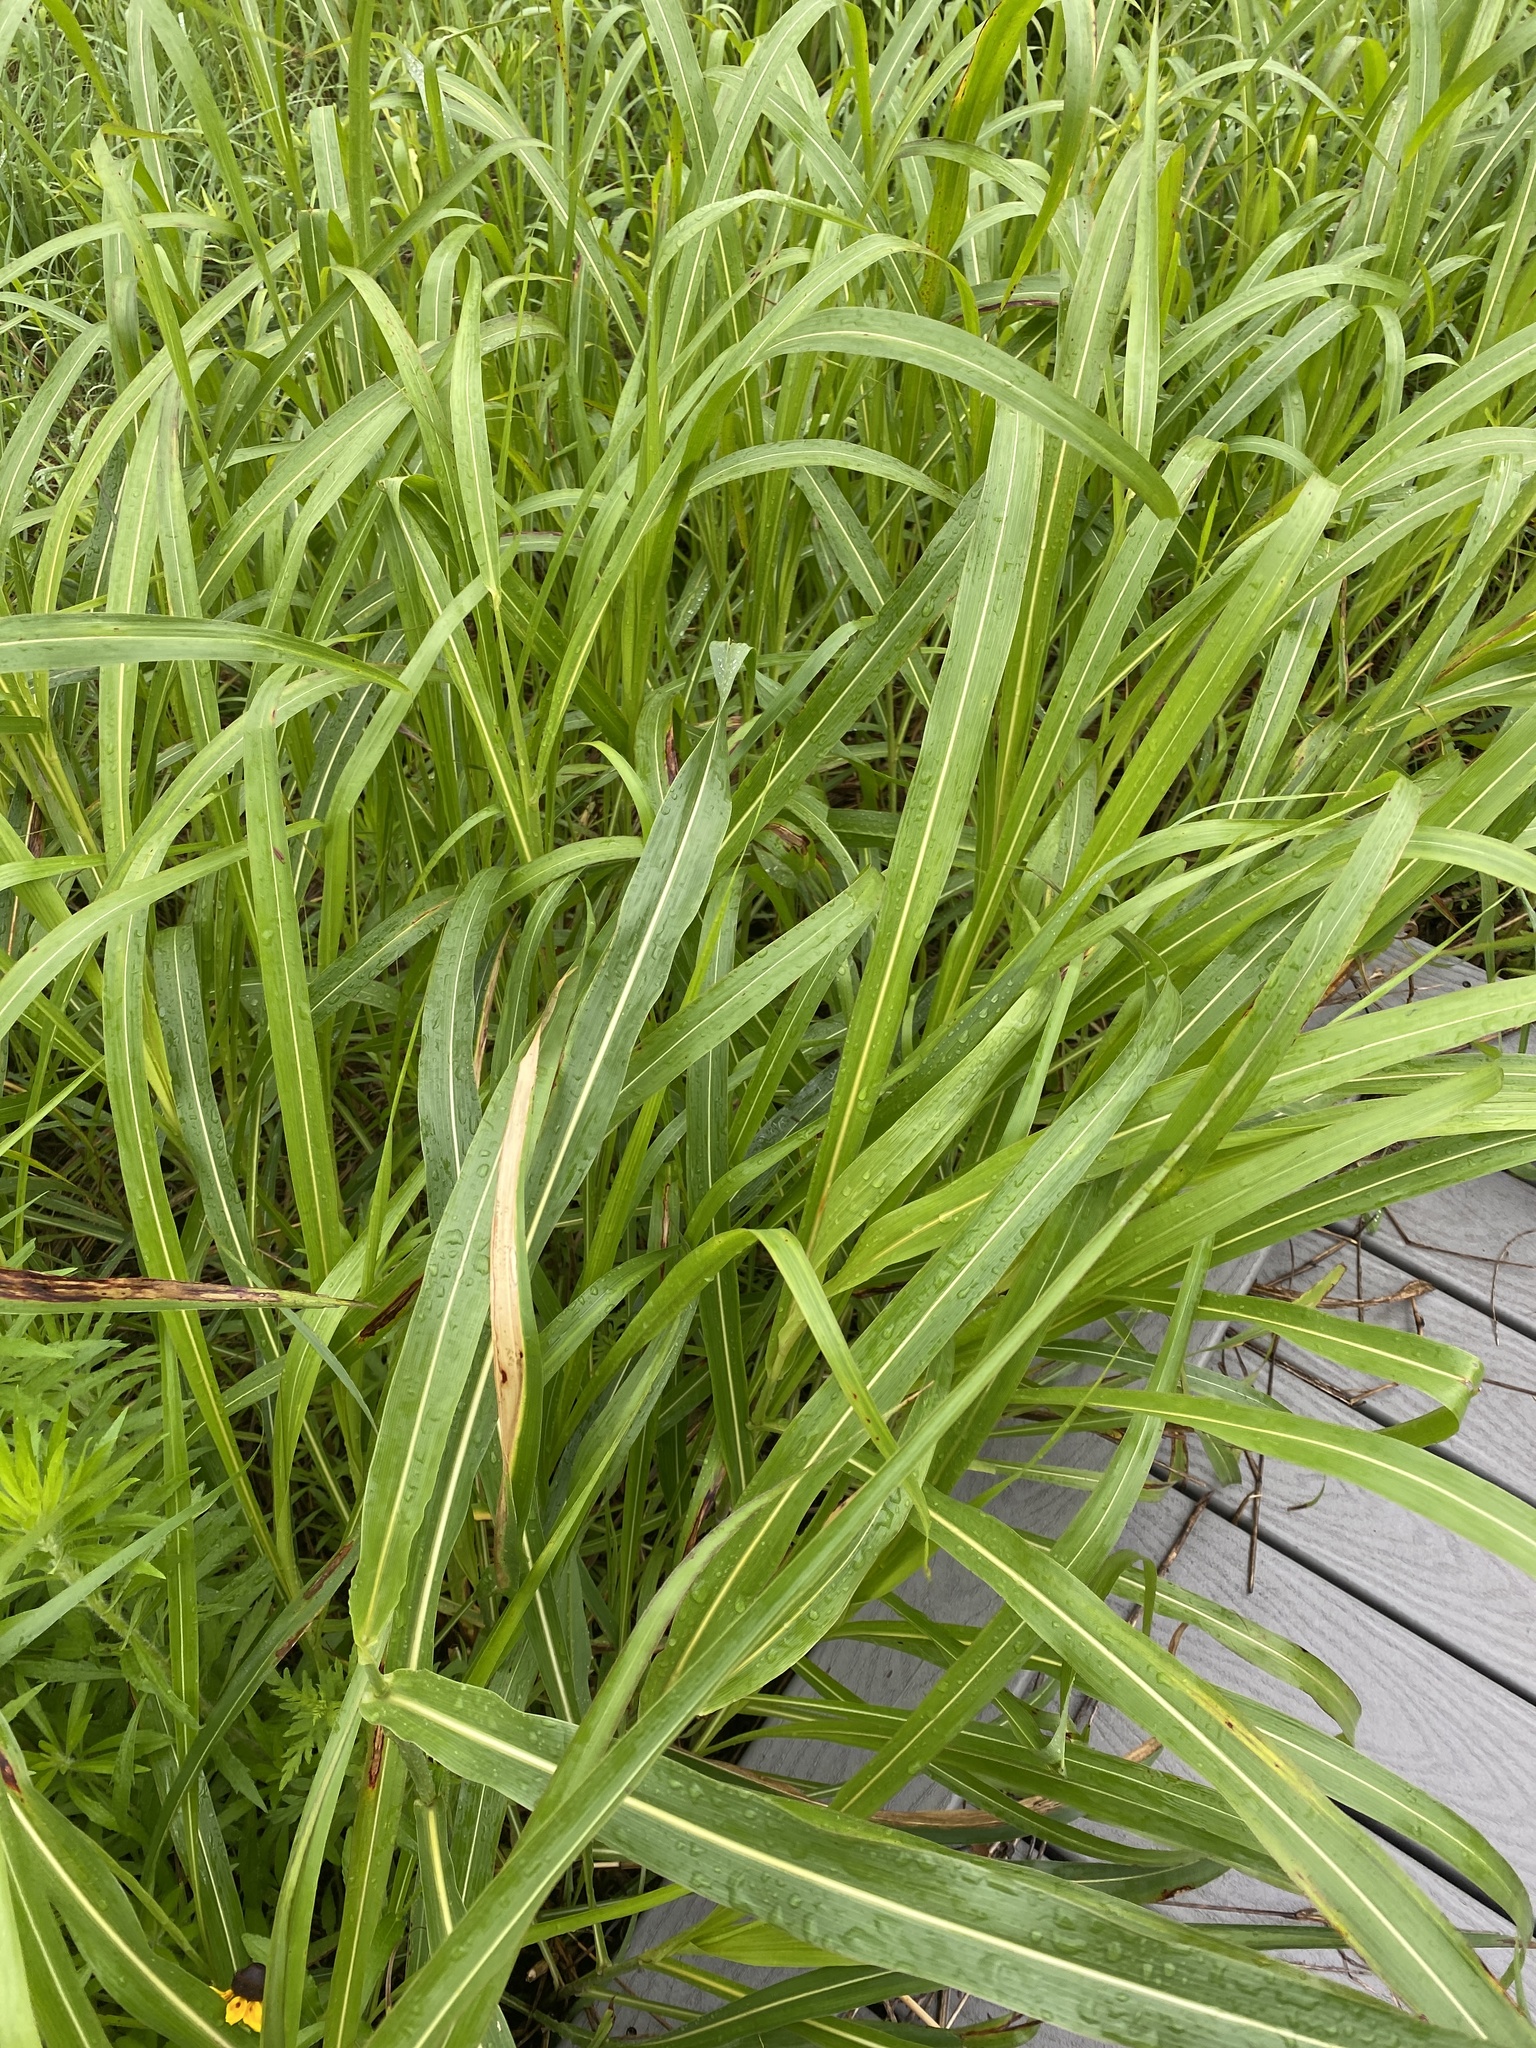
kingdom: Plantae
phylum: Tracheophyta
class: Liliopsida
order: Poales
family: Poaceae
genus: Sorghum
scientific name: Sorghum halepense
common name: Johnson-grass
